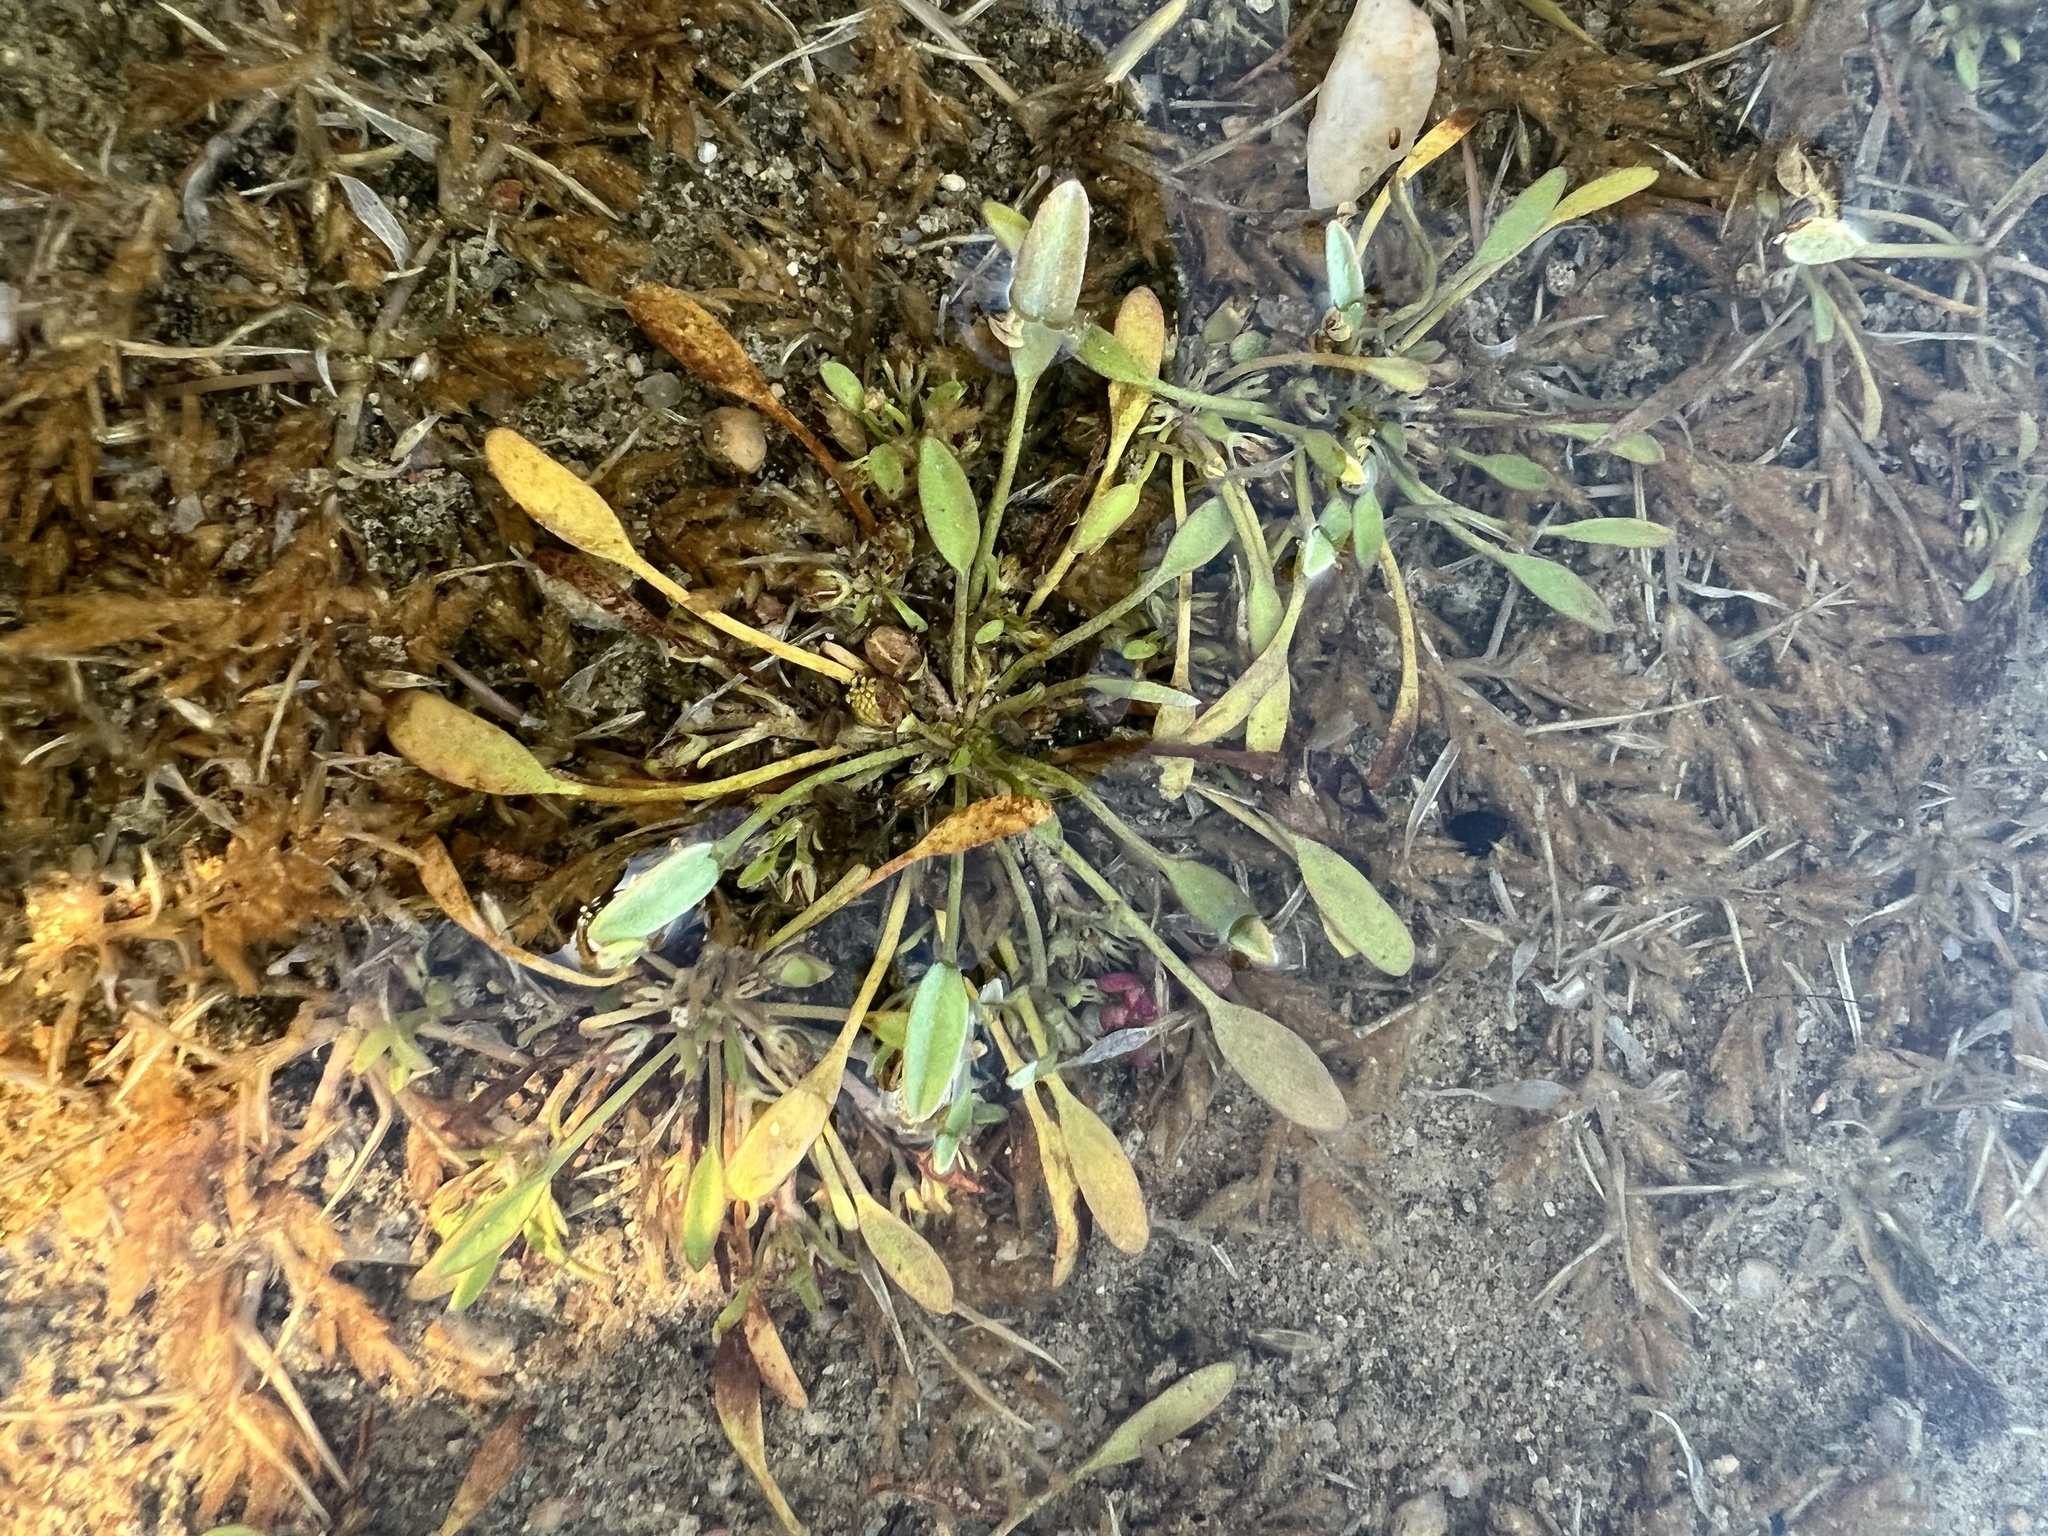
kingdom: Plantae
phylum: Tracheophyta
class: Magnoliopsida
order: Lamiales
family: Scrophulariaceae
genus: Limosella
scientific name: Limosella aquatica
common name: Mudwort
